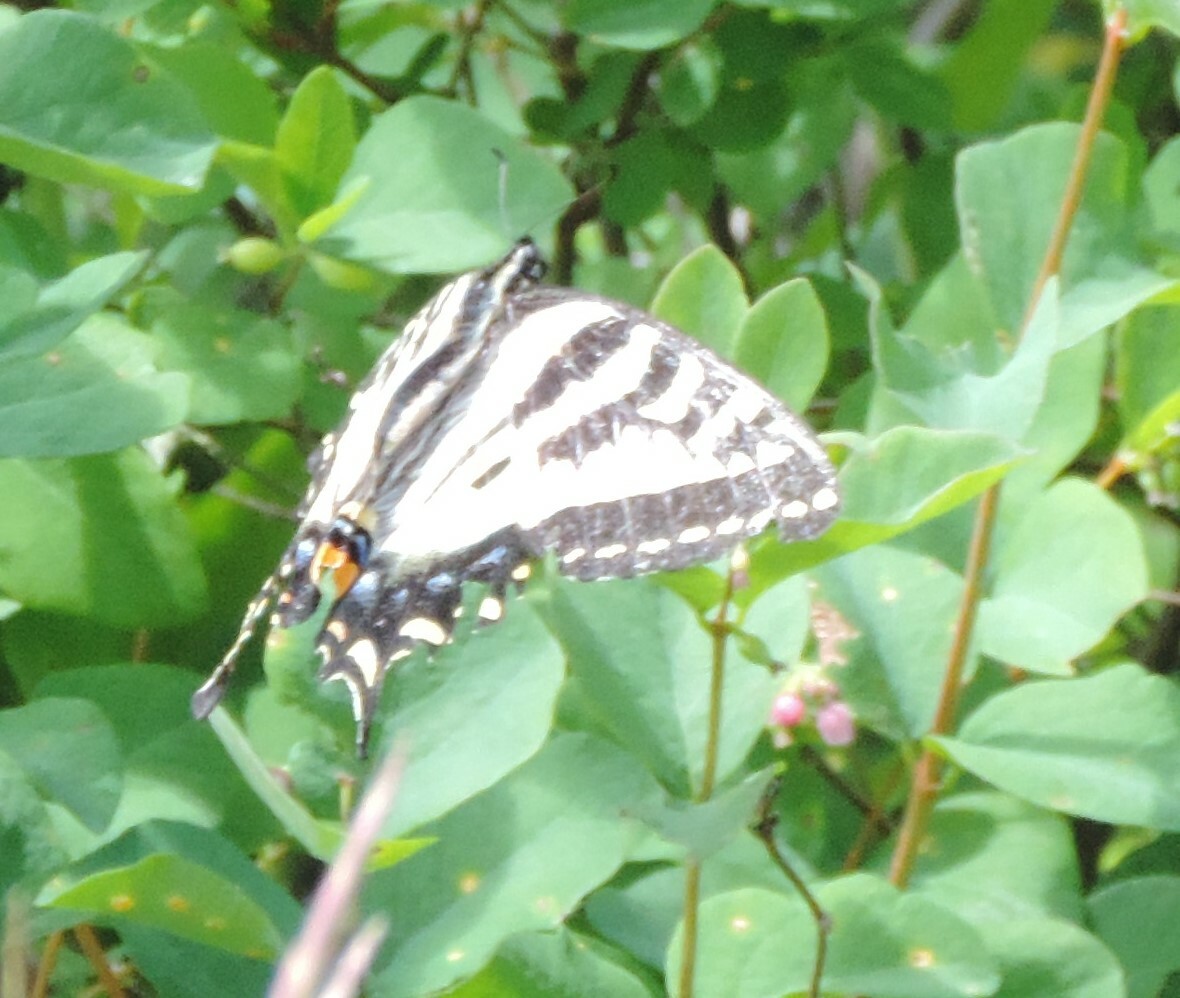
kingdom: Animalia
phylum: Arthropoda
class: Insecta
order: Lepidoptera
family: Papilionidae
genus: Papilio
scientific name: Papilio rutulus
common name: Western tiger swallowtail
